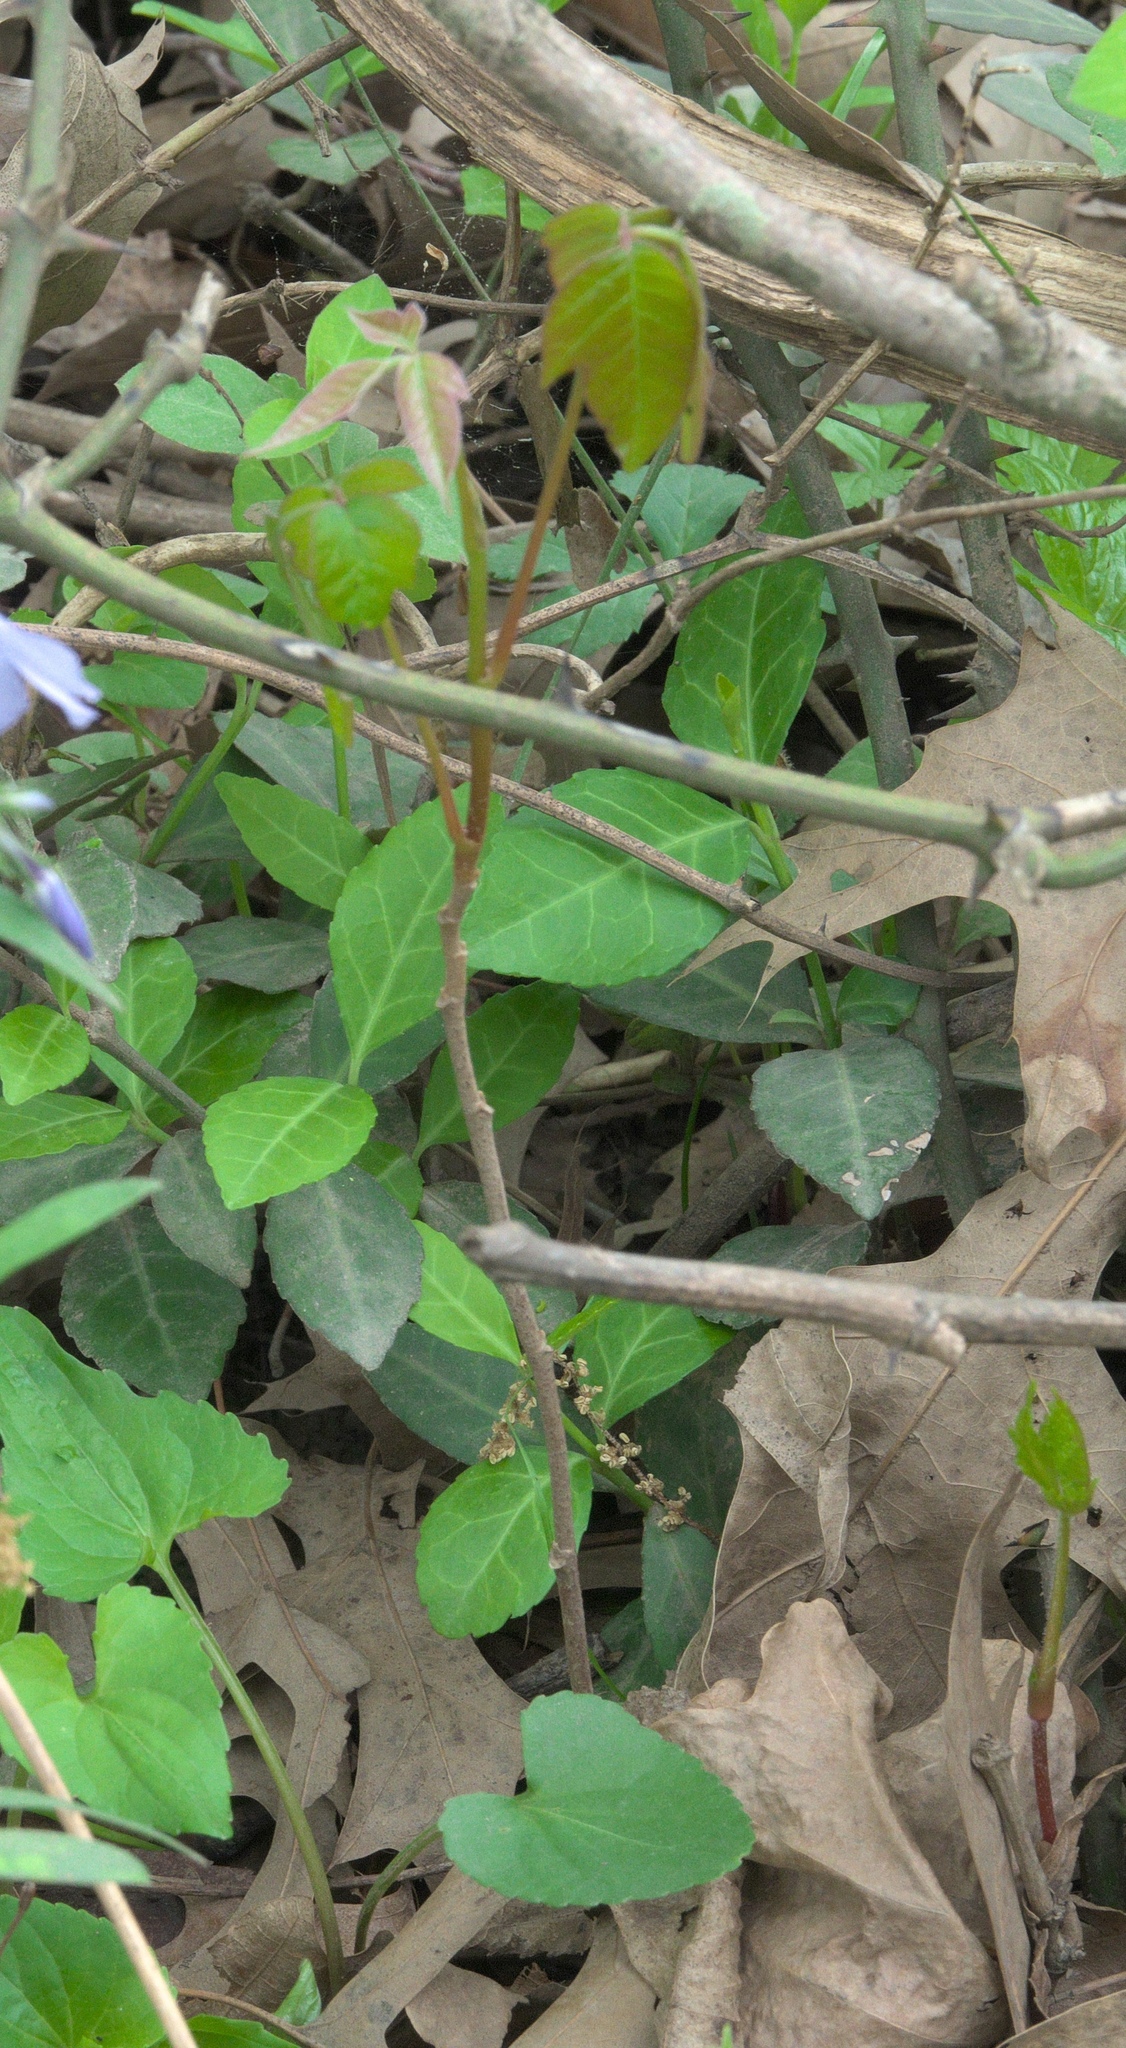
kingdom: Plantae
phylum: Tracheophyta
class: Magnoliopsida
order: Sapindales
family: Anacardiaceae
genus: Toxicodendron
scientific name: Toxicodendron radicans
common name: Poison ivy
